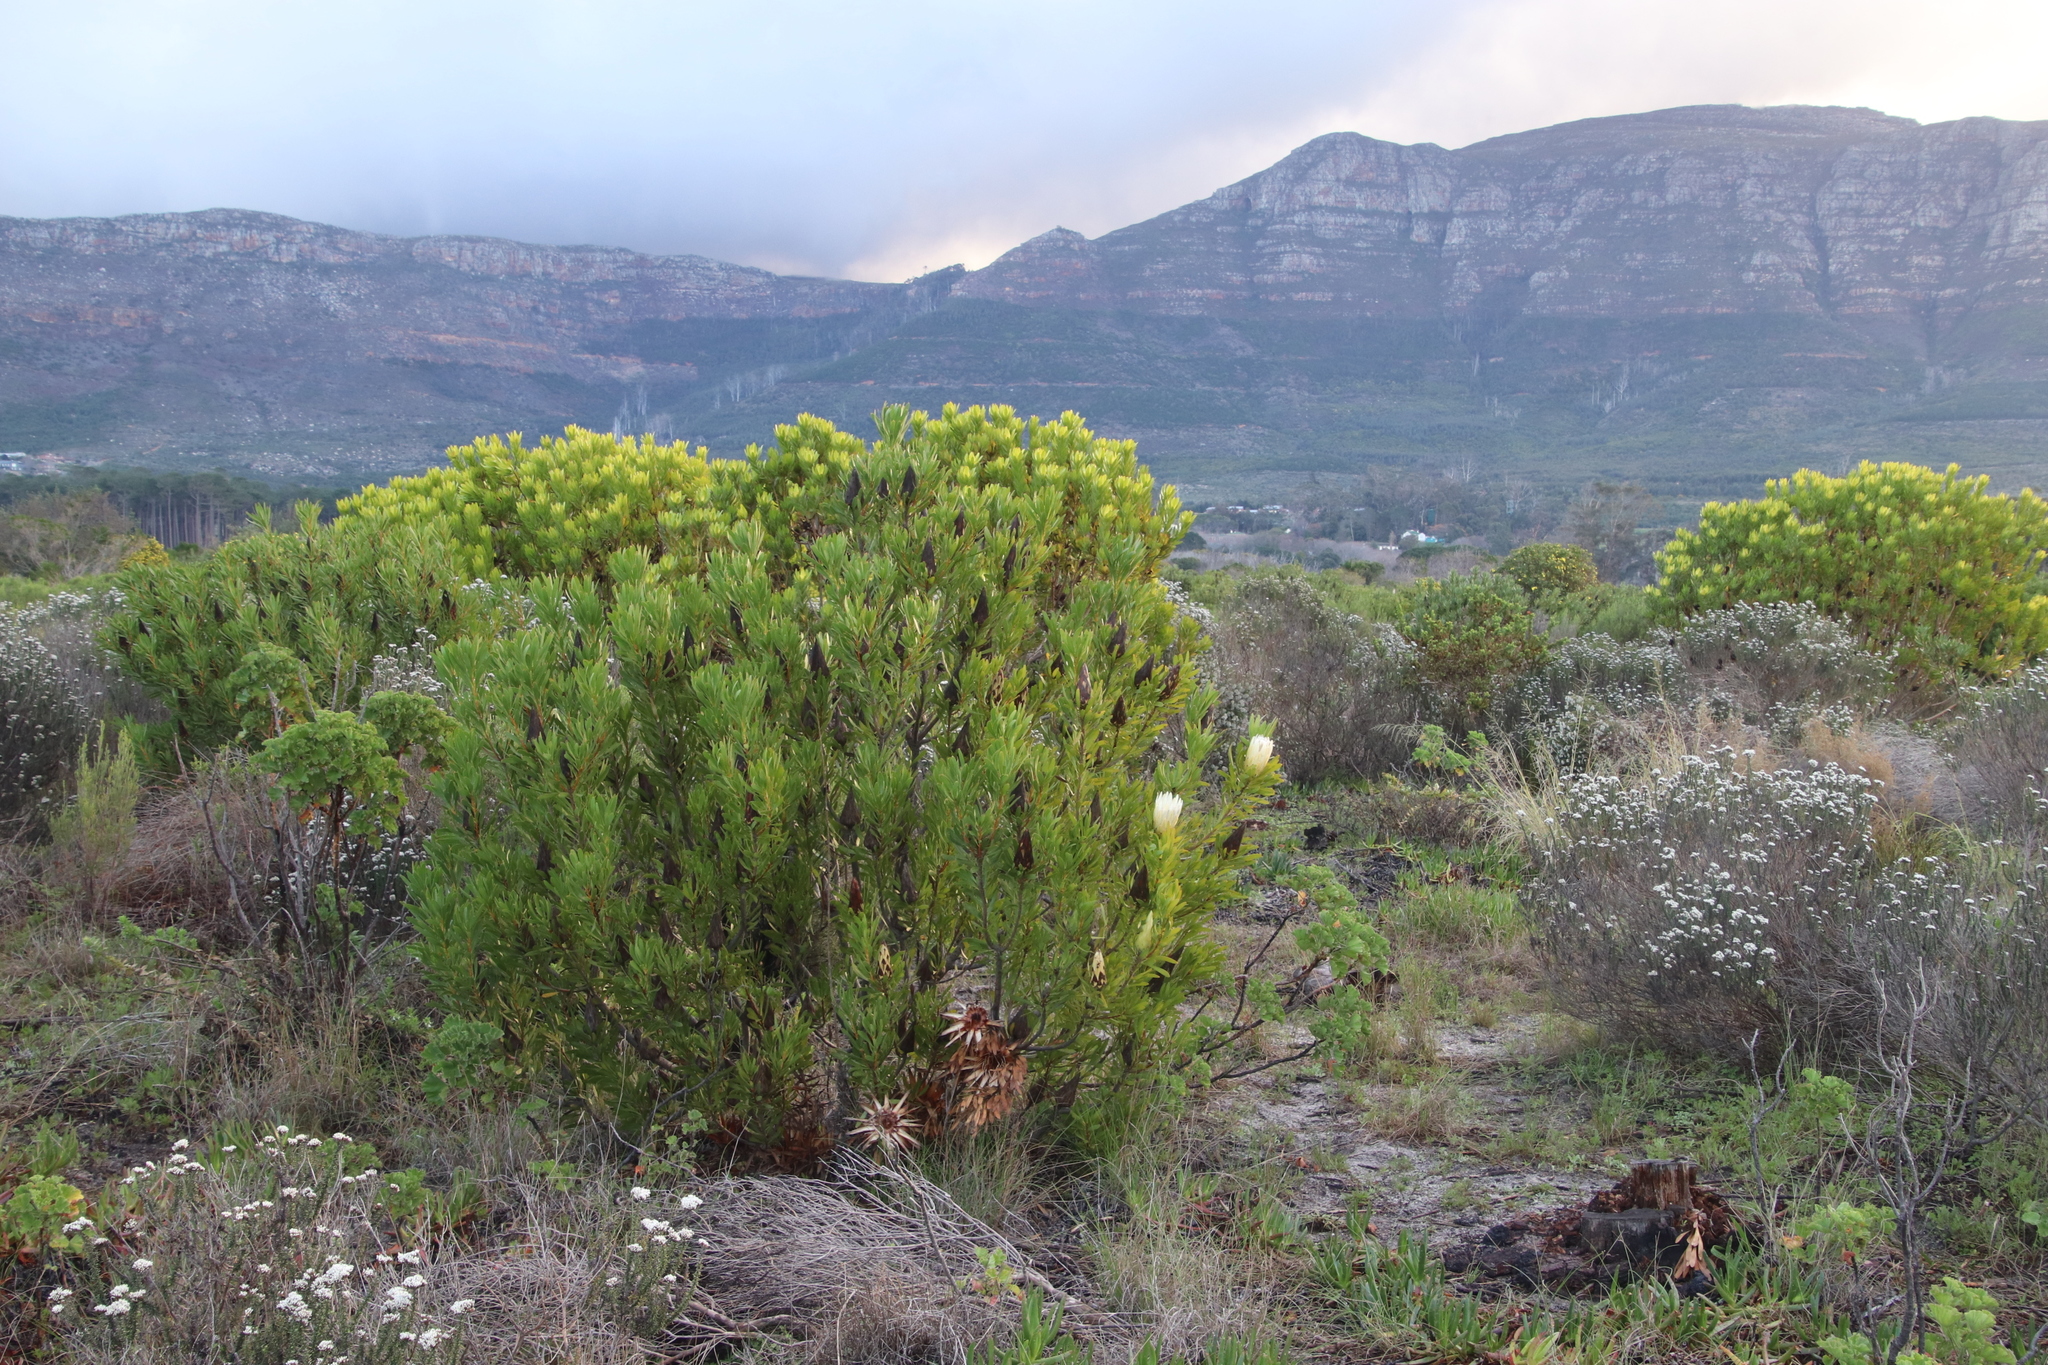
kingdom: Plantae
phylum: Tracheophyta
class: Magnoliopsida
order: Proteales
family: Proteaceae
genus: Protea
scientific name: Protea repens
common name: Sugarbush
